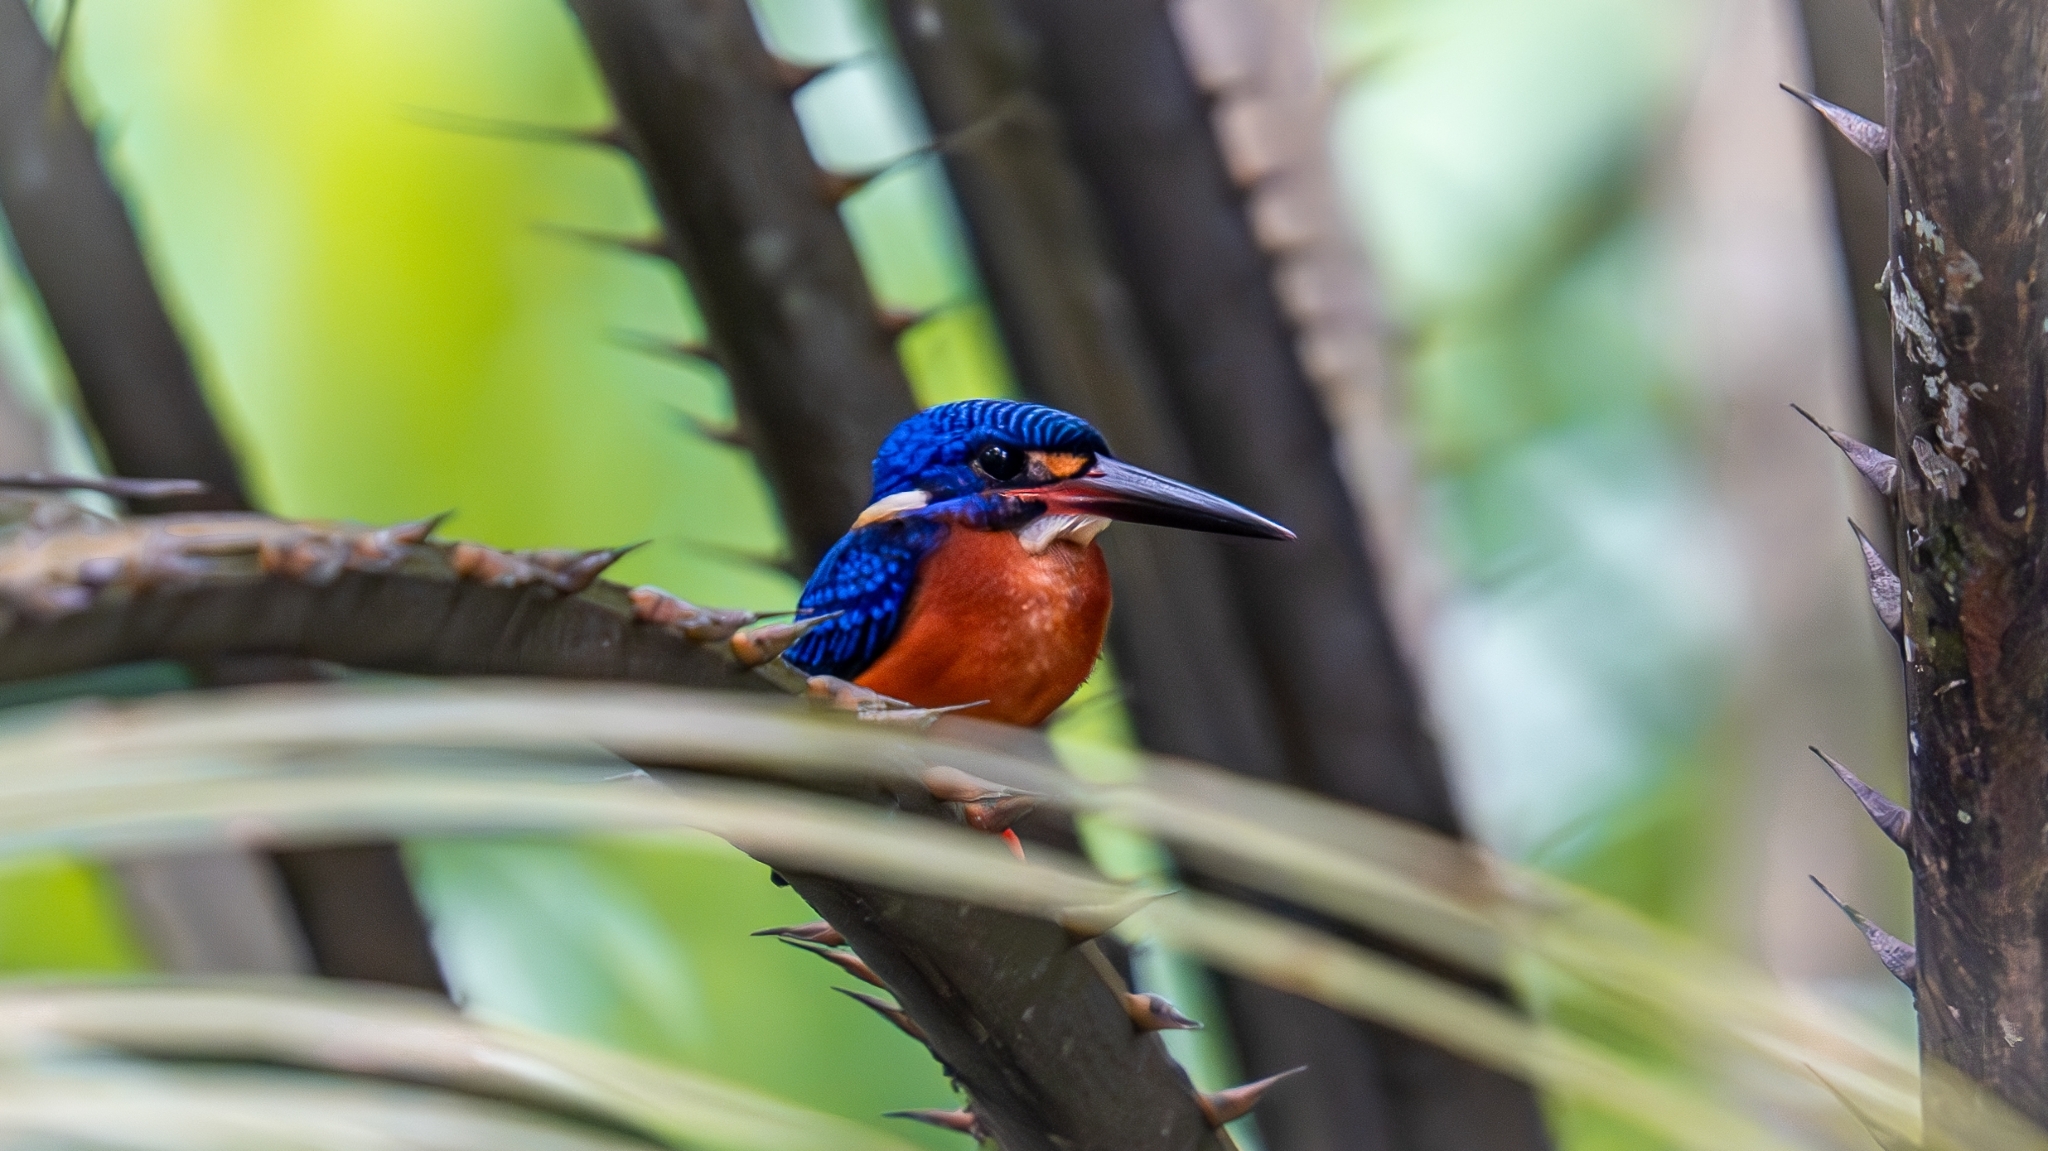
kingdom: Animalia
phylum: Chordata
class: Aves
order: Coraciiformes
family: Alcedinidae
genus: Alcedo
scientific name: Alcedo meninting
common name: Blue-eared kingfisher
